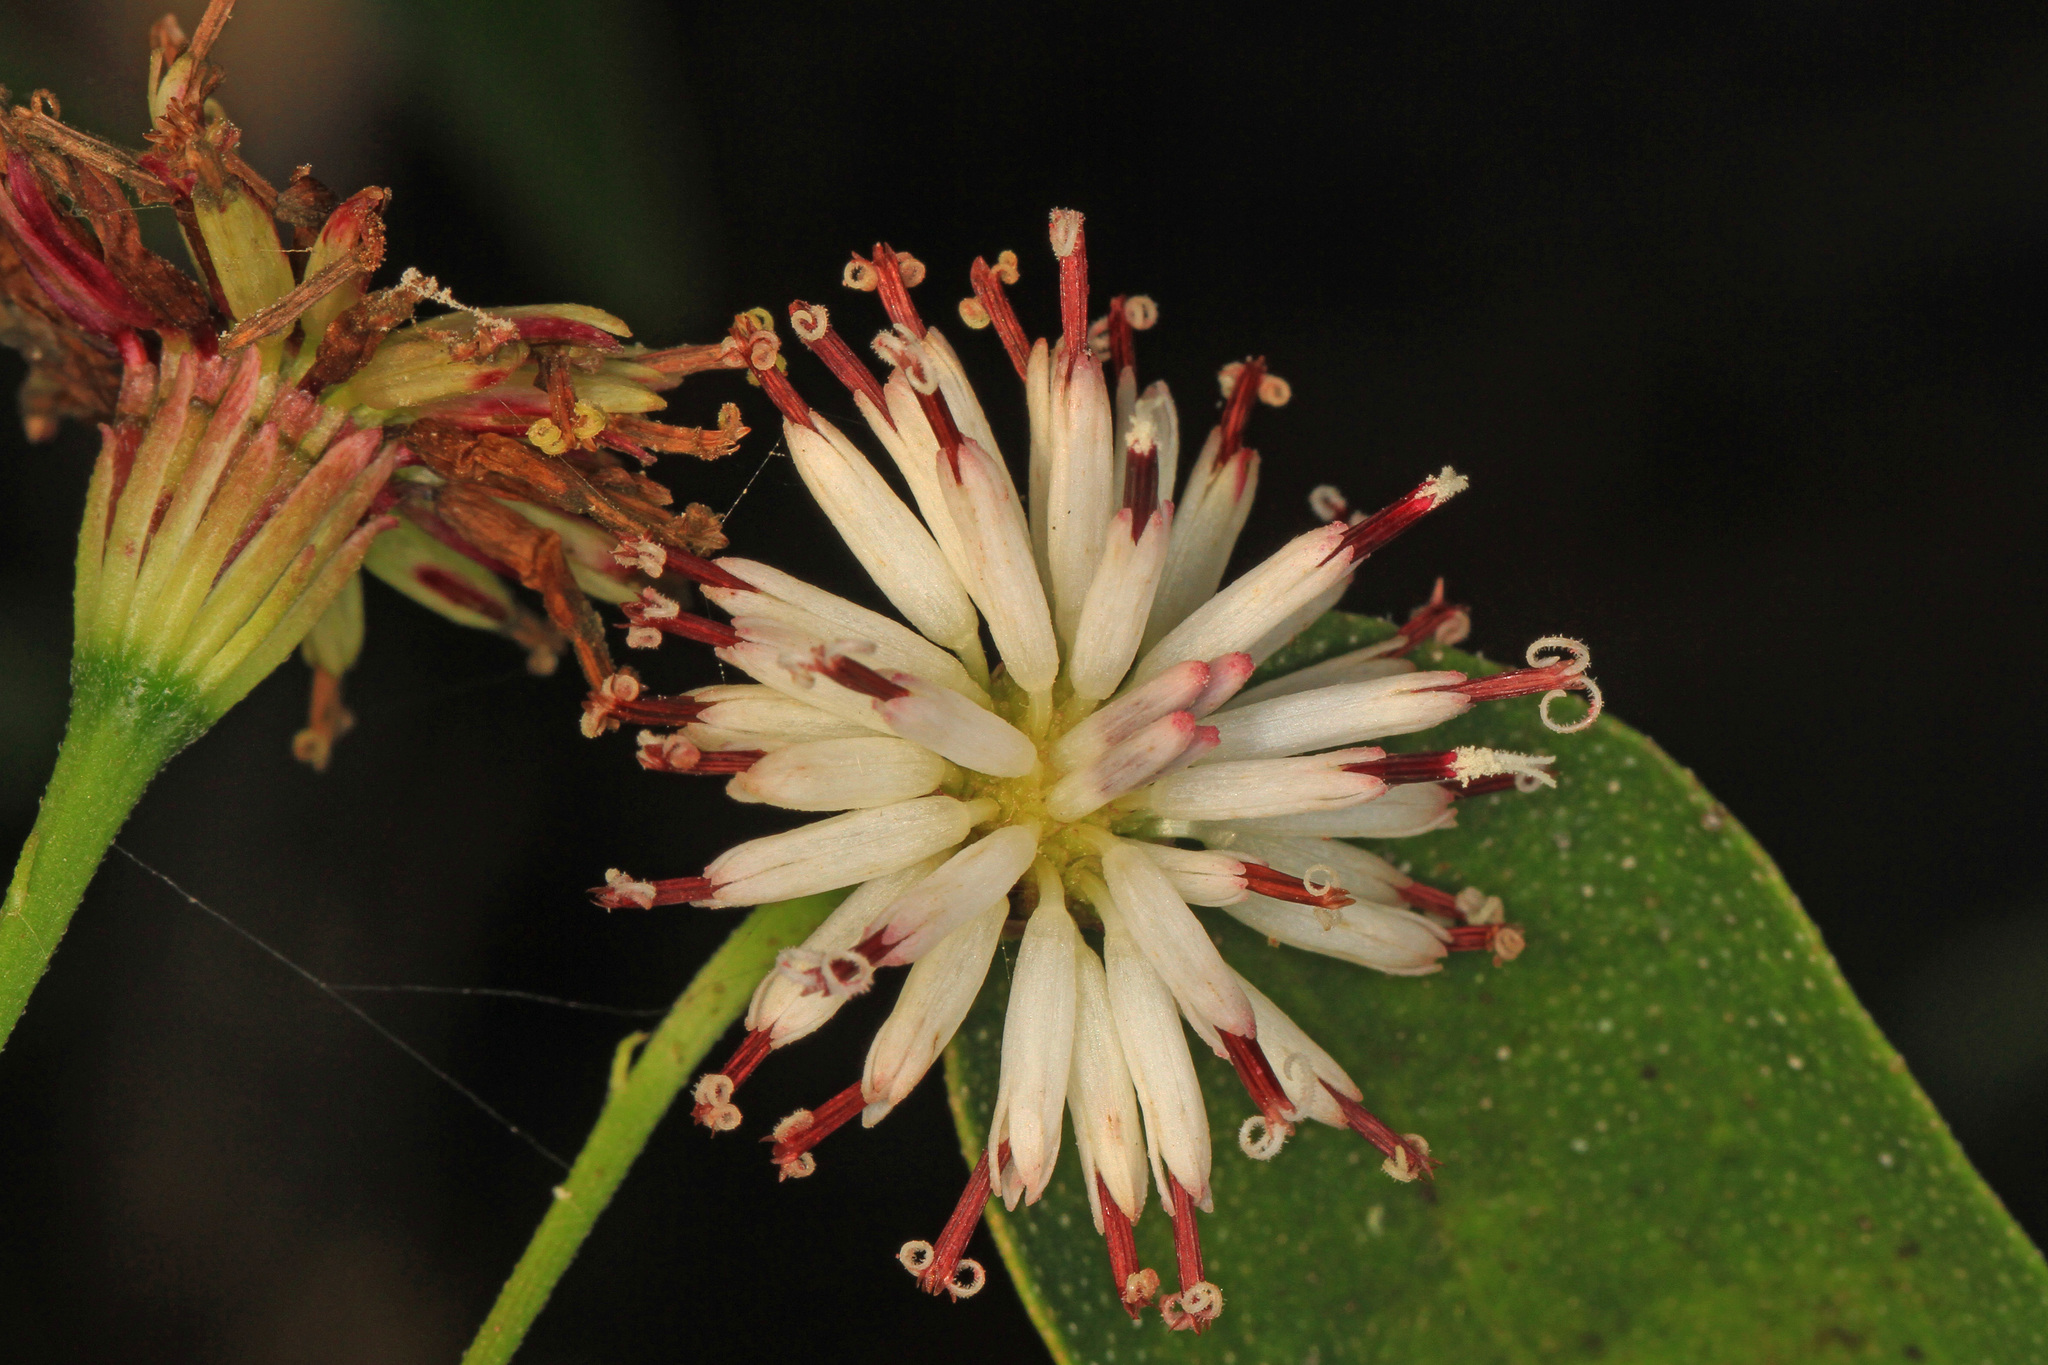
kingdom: Plantae
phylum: Tracheophyta
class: Magnoliopsida
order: Asterales
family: Asteraceae
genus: Palafoxia
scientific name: Palafoxia feayi
